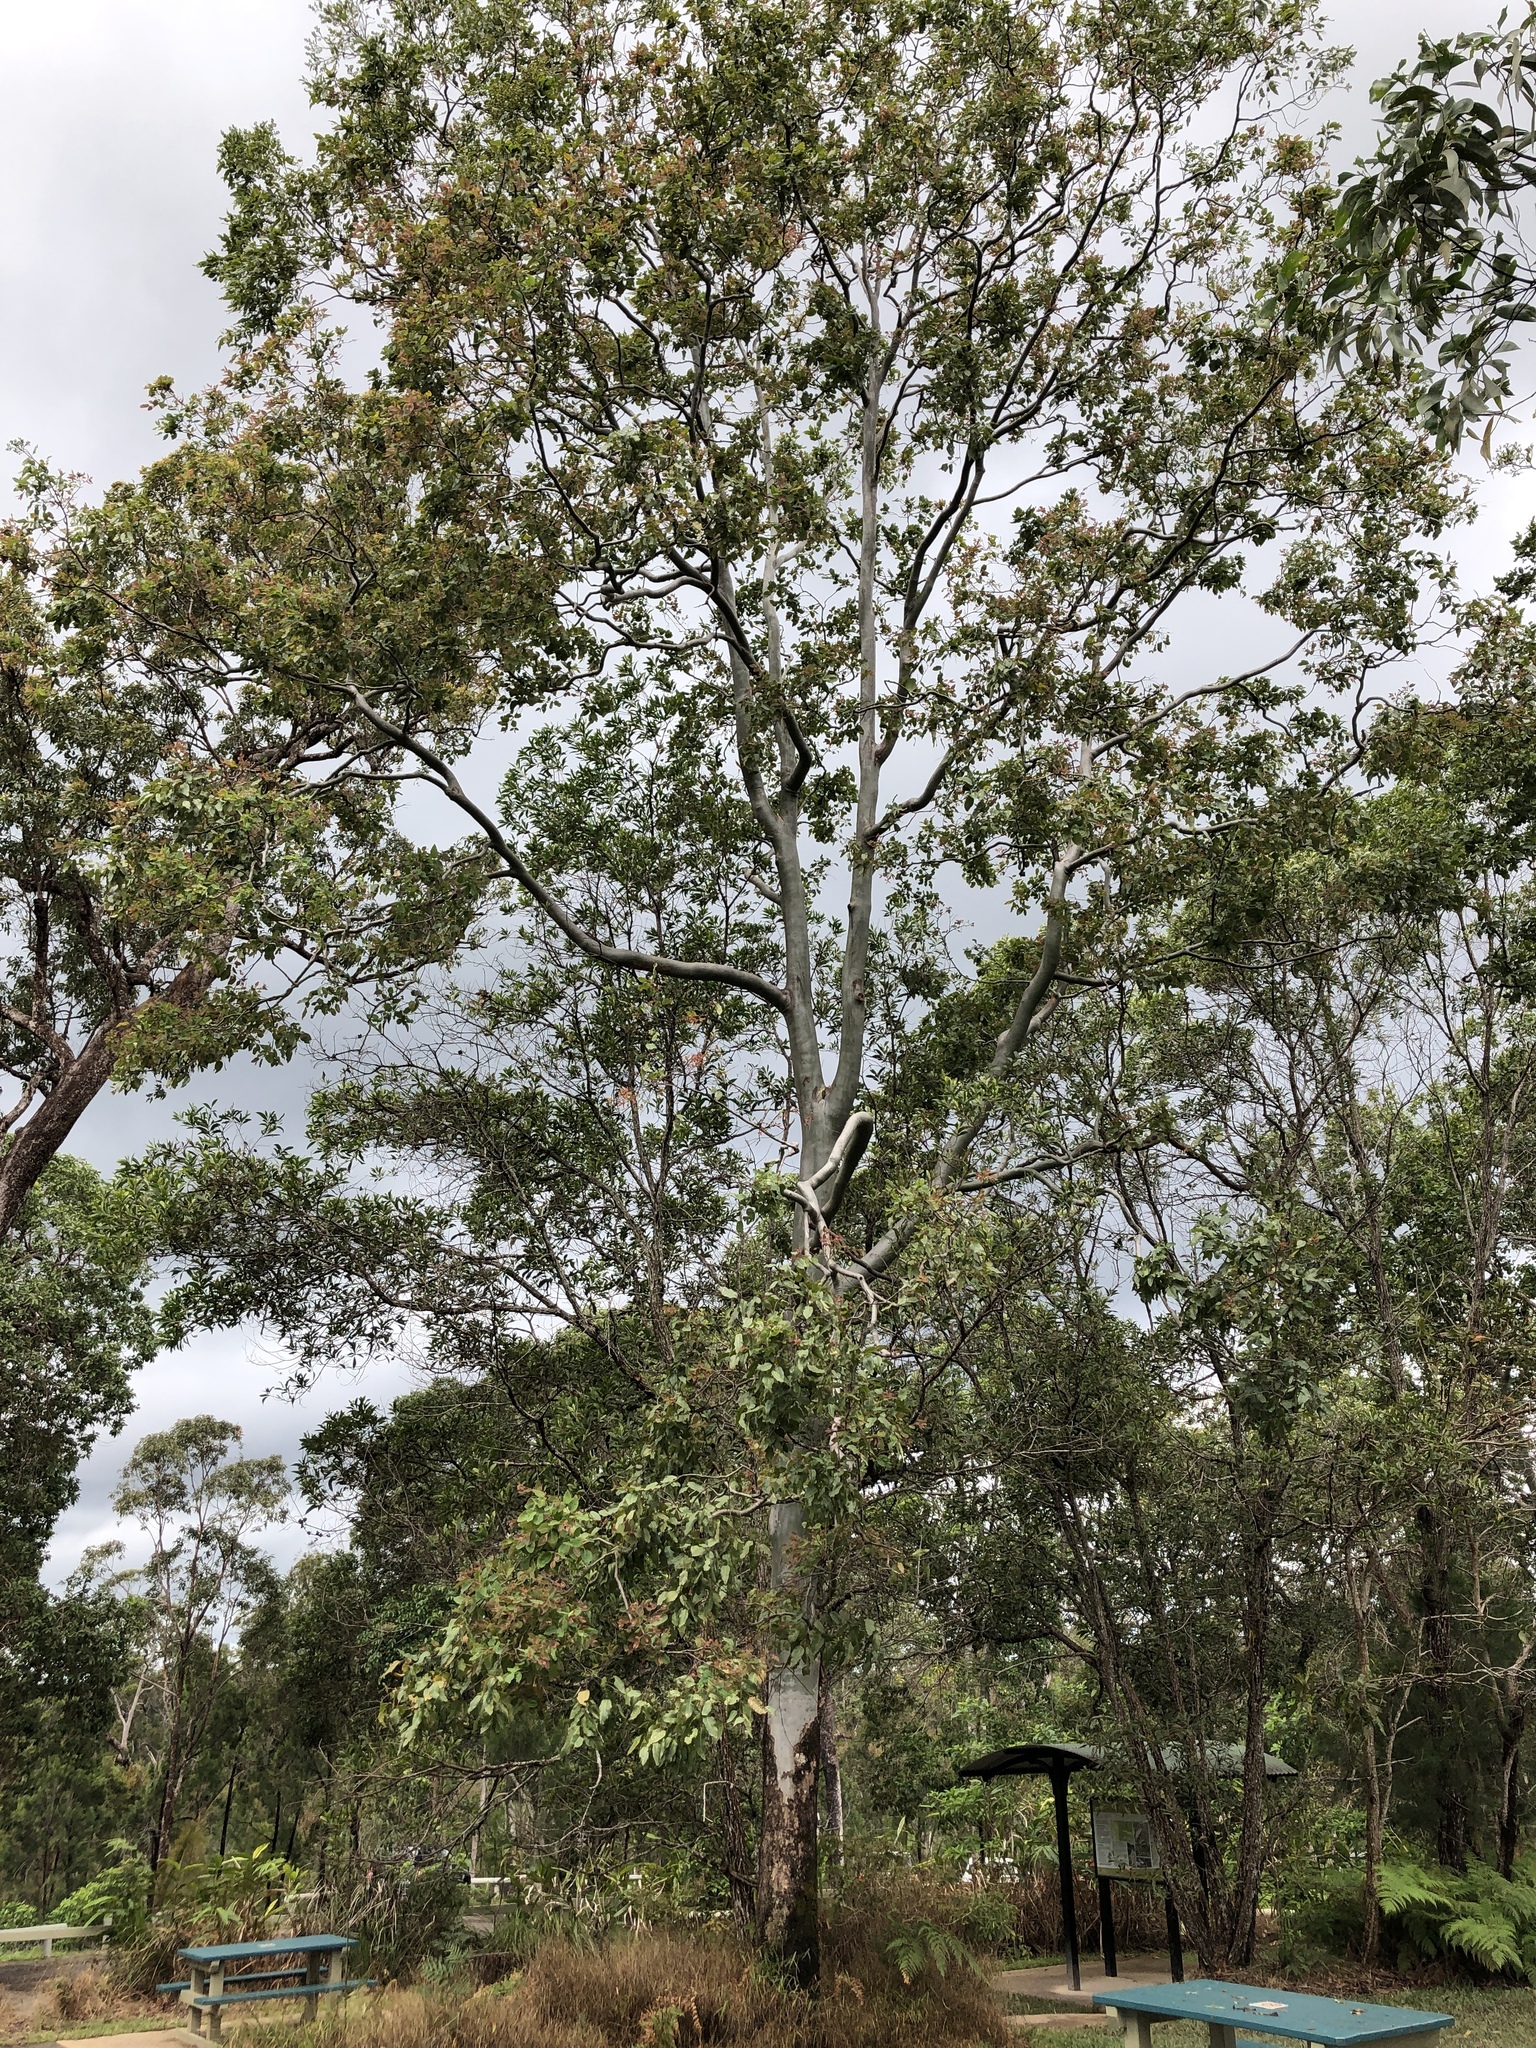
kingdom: Plantae
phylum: Tracheophyta
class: Magnoliopsida
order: Myrtales
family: Myrtaceae
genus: Corymbia
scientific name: Corymbia torelliana
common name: Cadaghi
